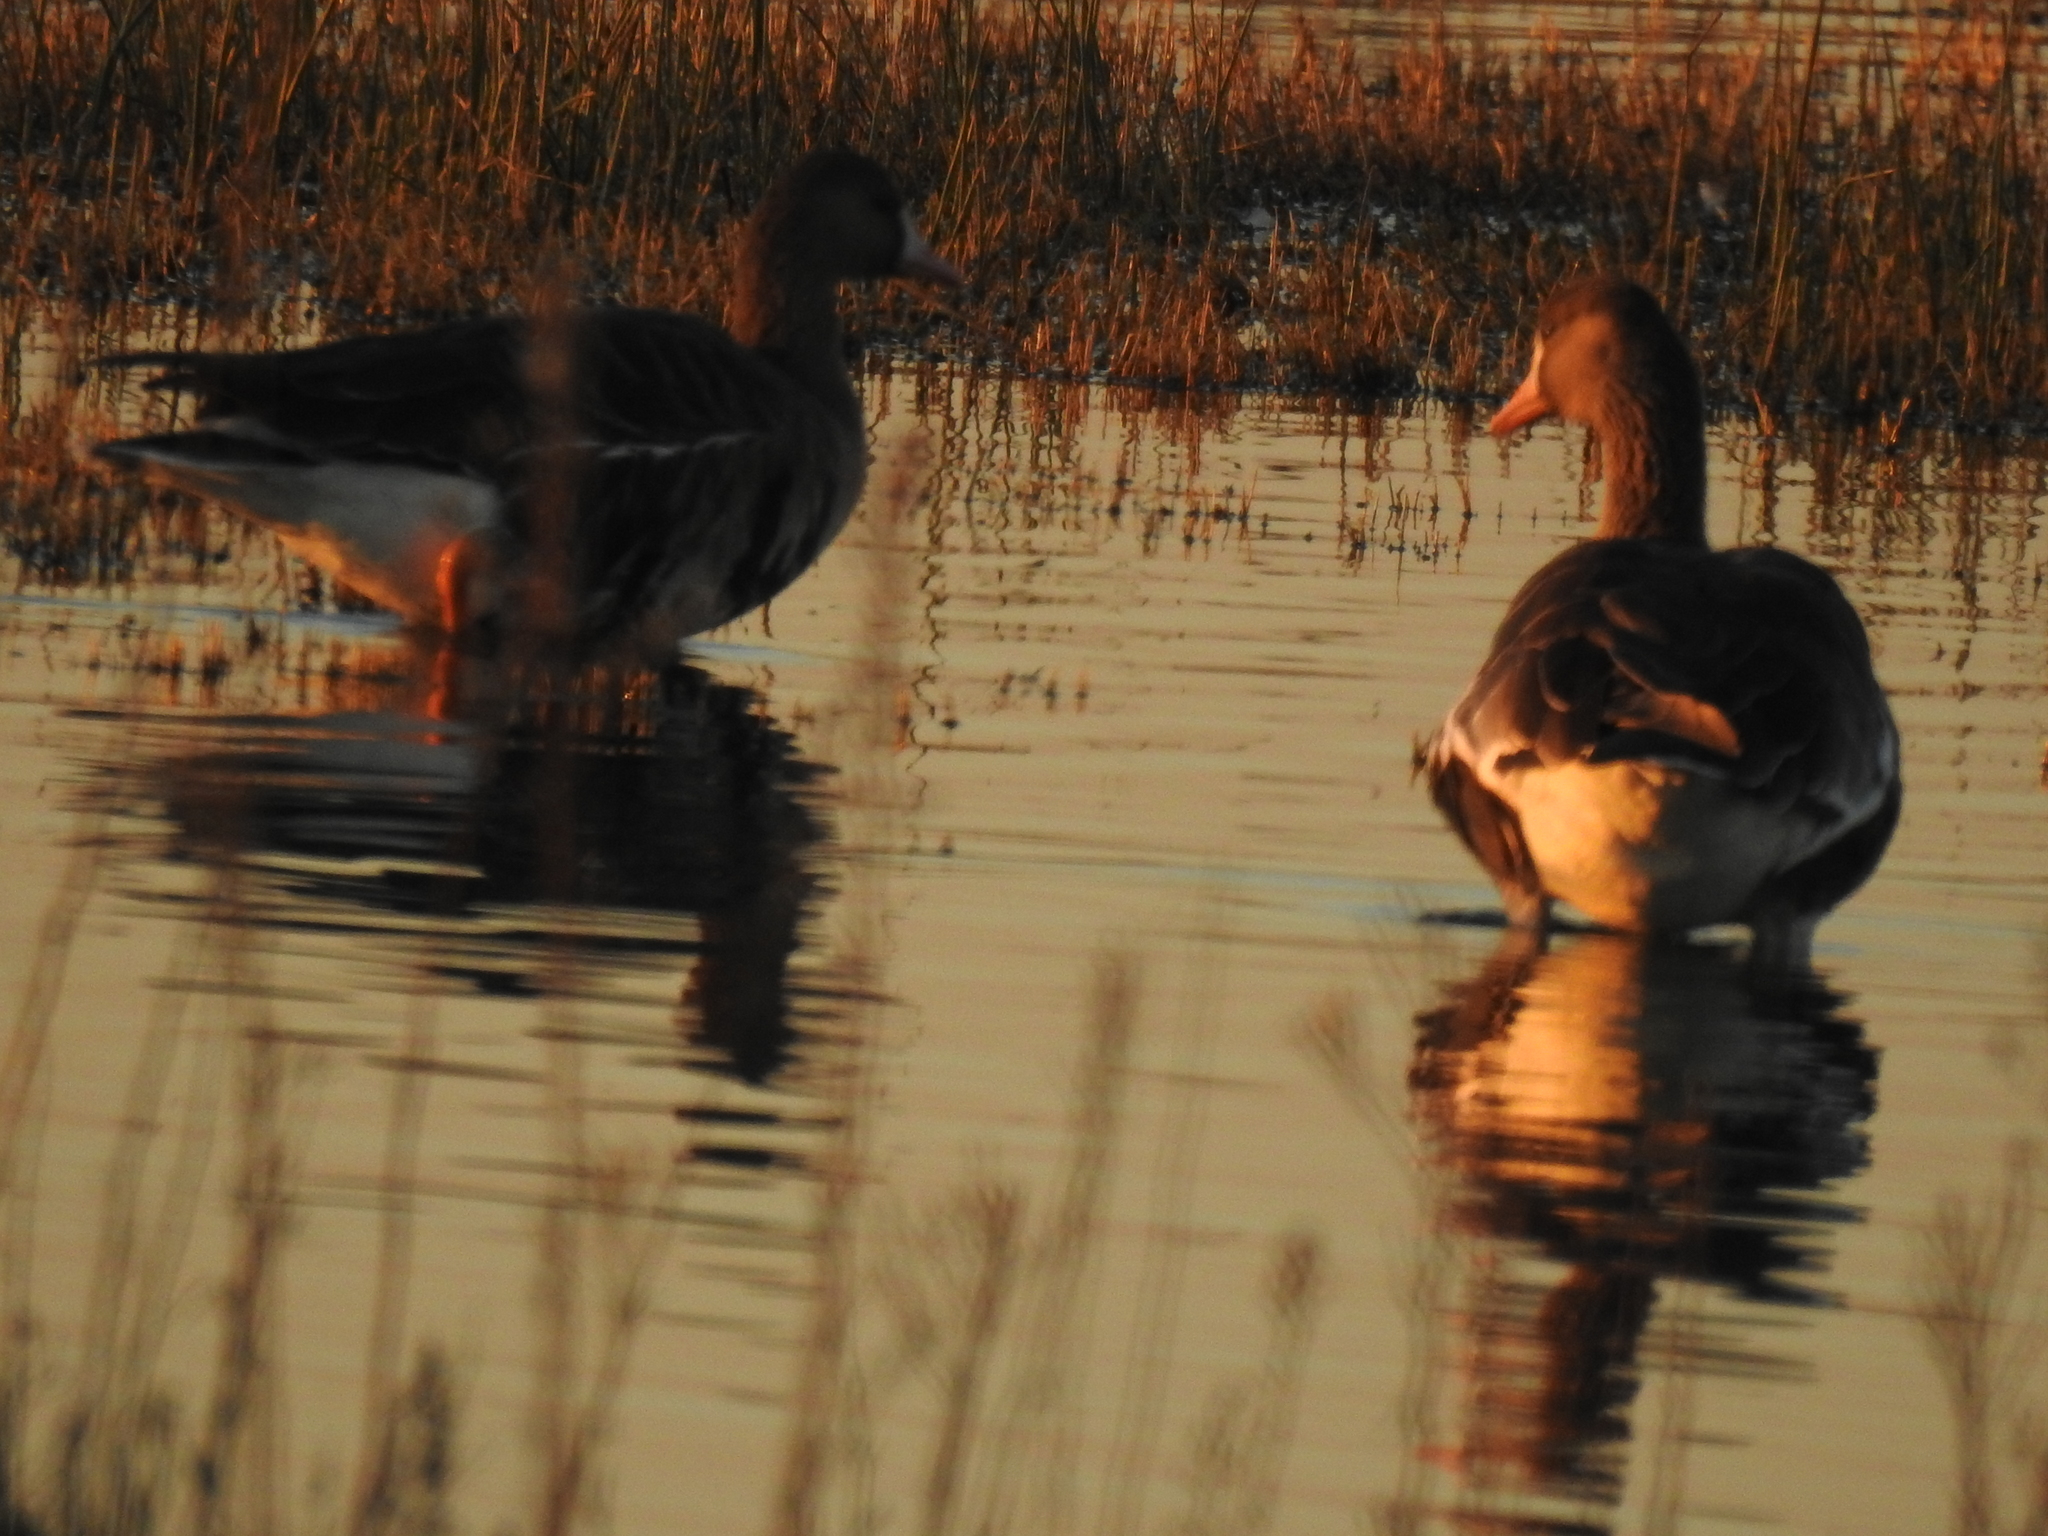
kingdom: Animalia
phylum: Chordata
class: Aves
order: Anseriformes
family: Anatidae
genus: Anser
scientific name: Anser albifrons
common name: Greater white-fronted goose
